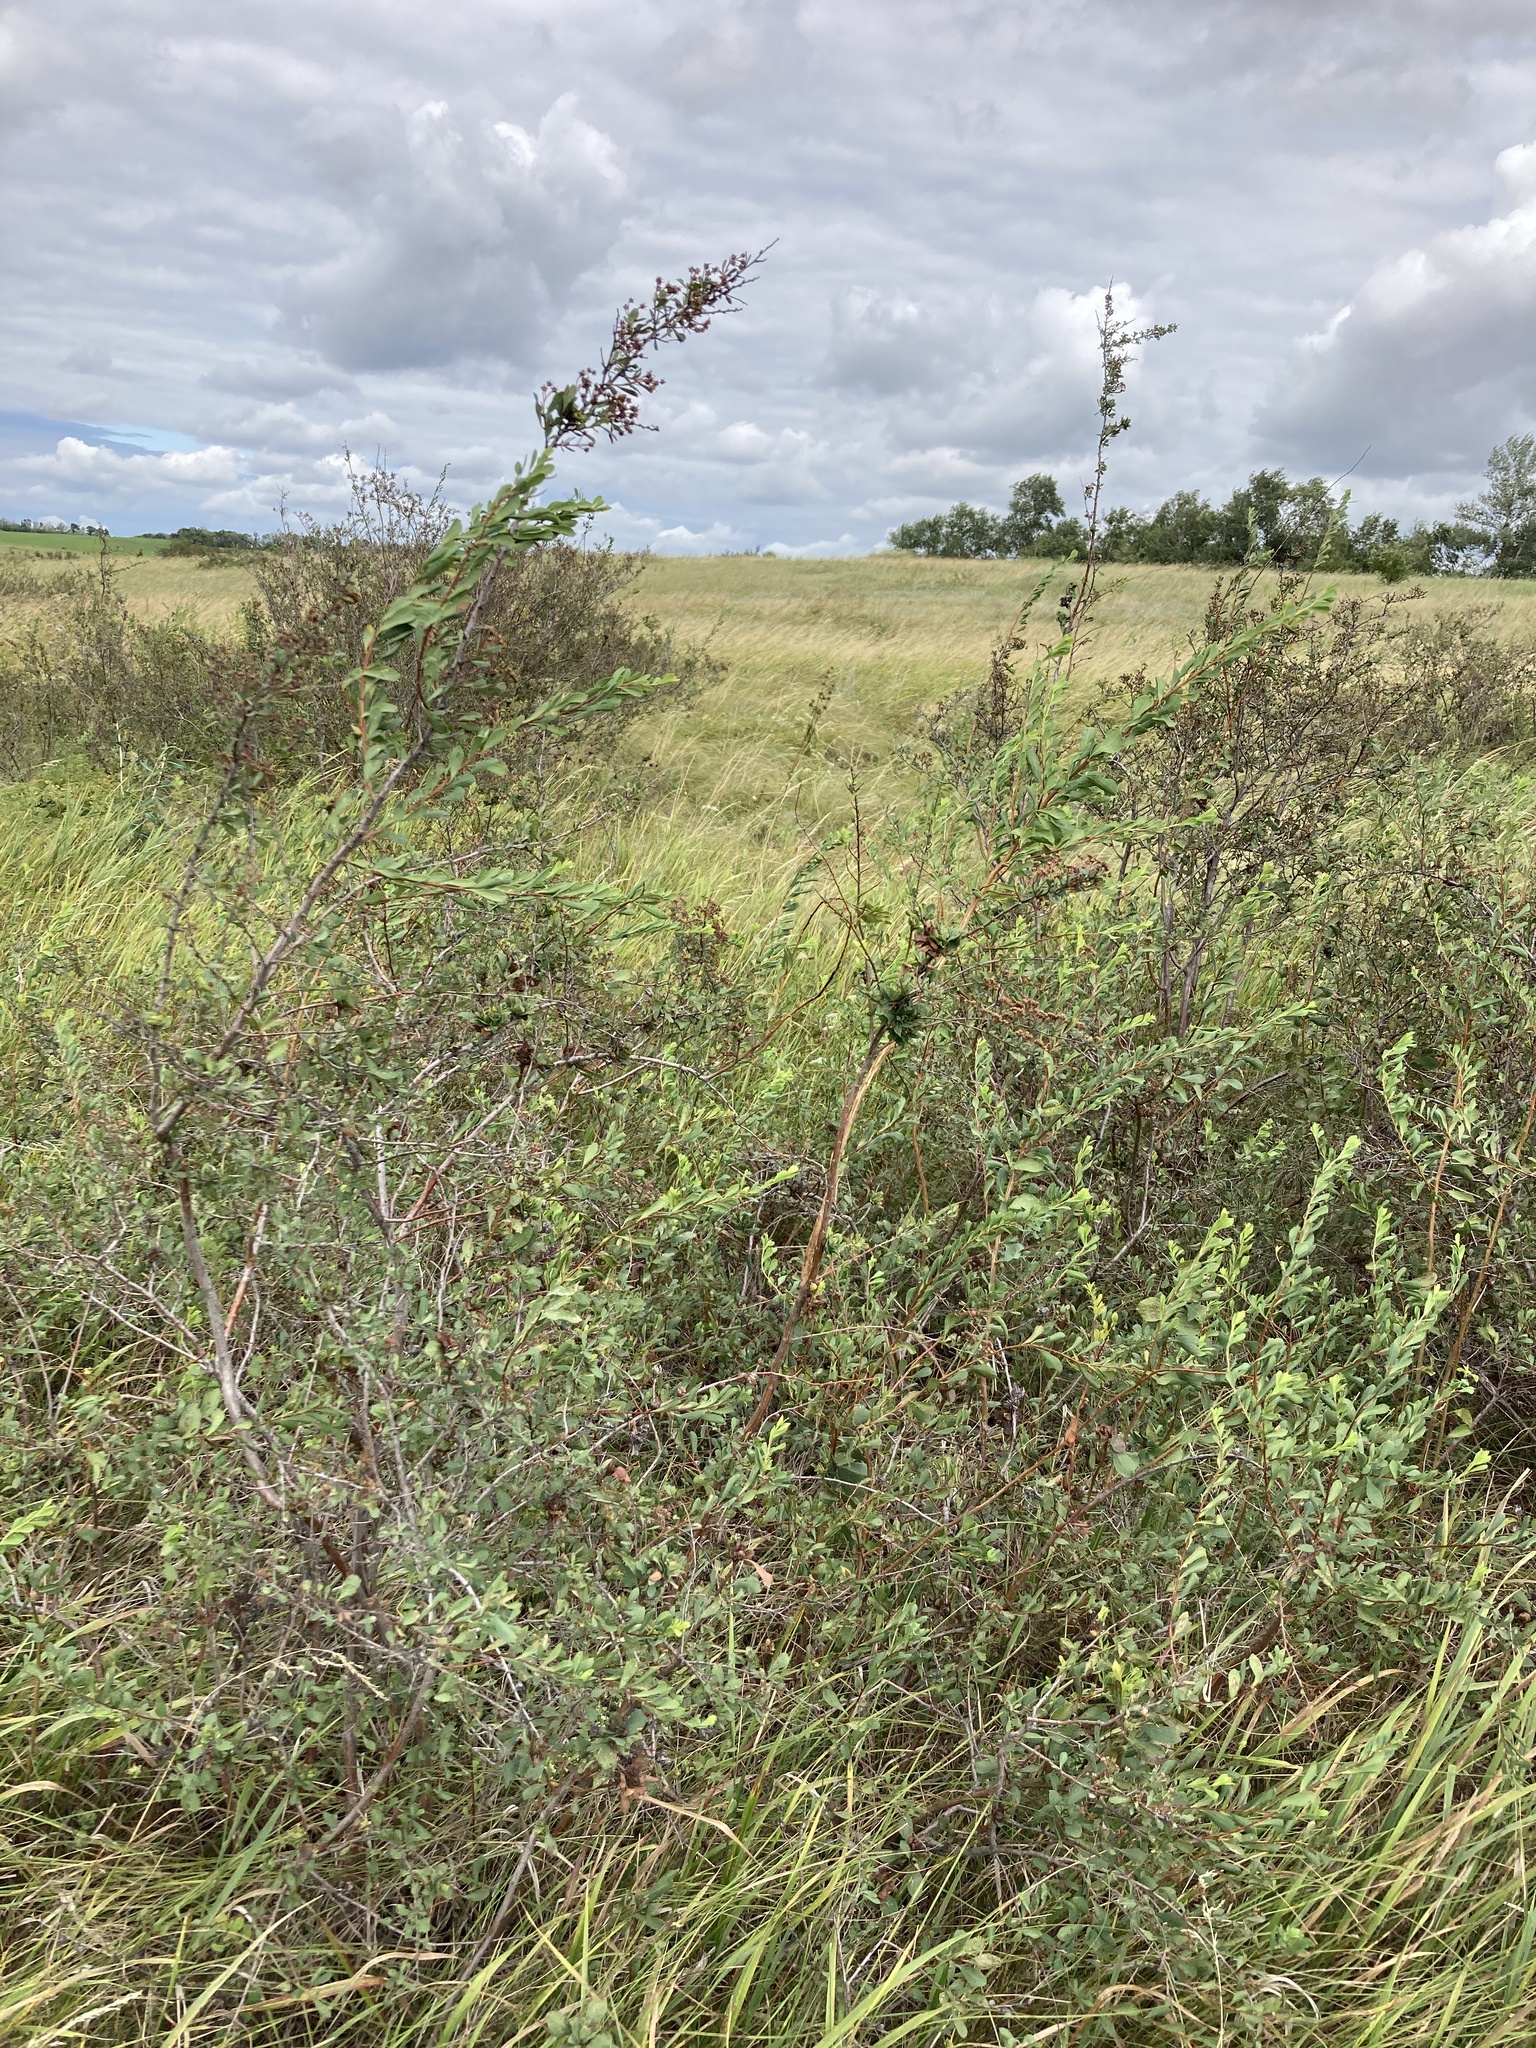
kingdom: Plantae
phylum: Tracheophyta
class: Magnoliopsida
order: Rosales
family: Rosaceae
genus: Spiraea
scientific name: Spiraea crenata
